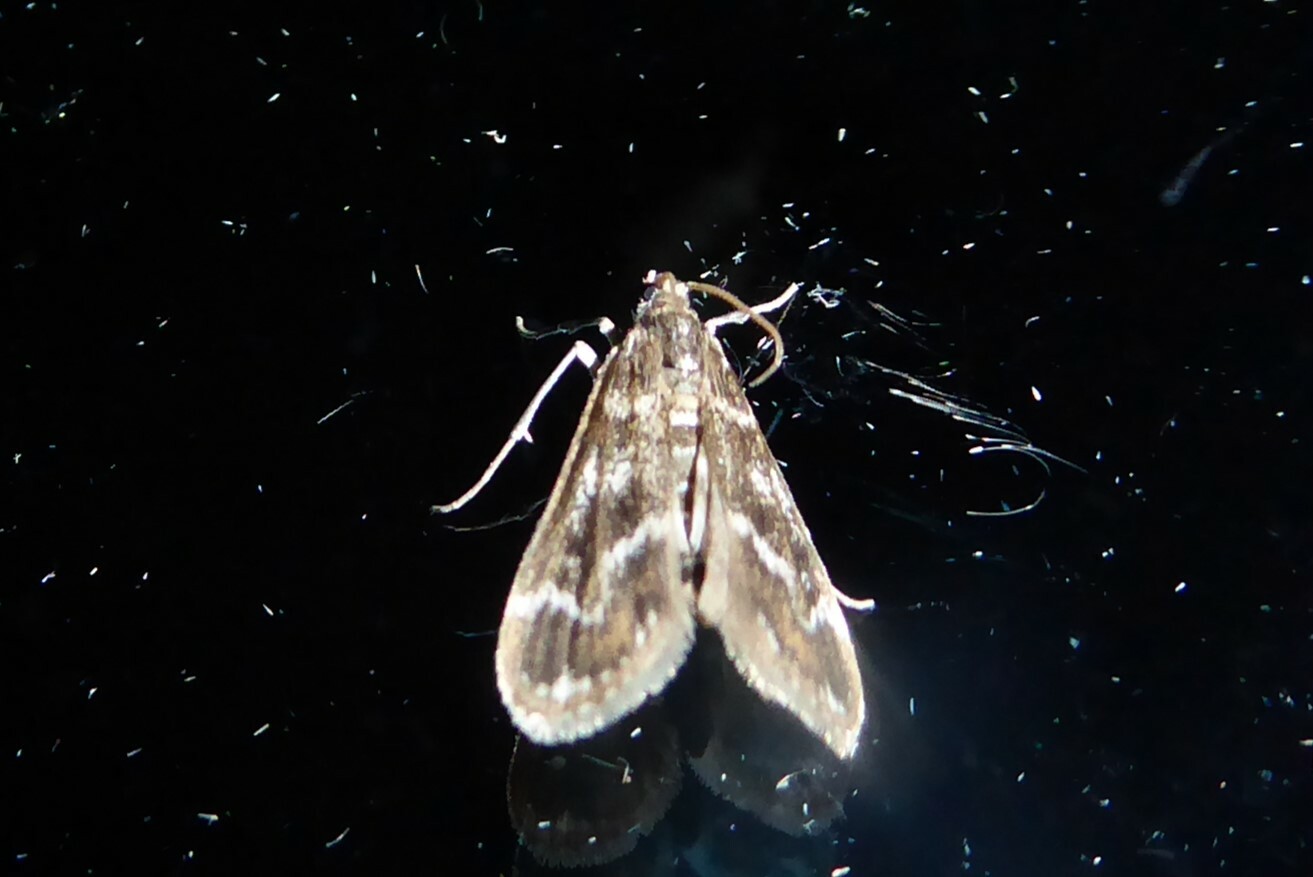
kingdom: Animalia
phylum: Arthropoda
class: Insecta
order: Lepidoptera
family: Crambidae
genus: Hygraula
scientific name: Hygraula nitens
